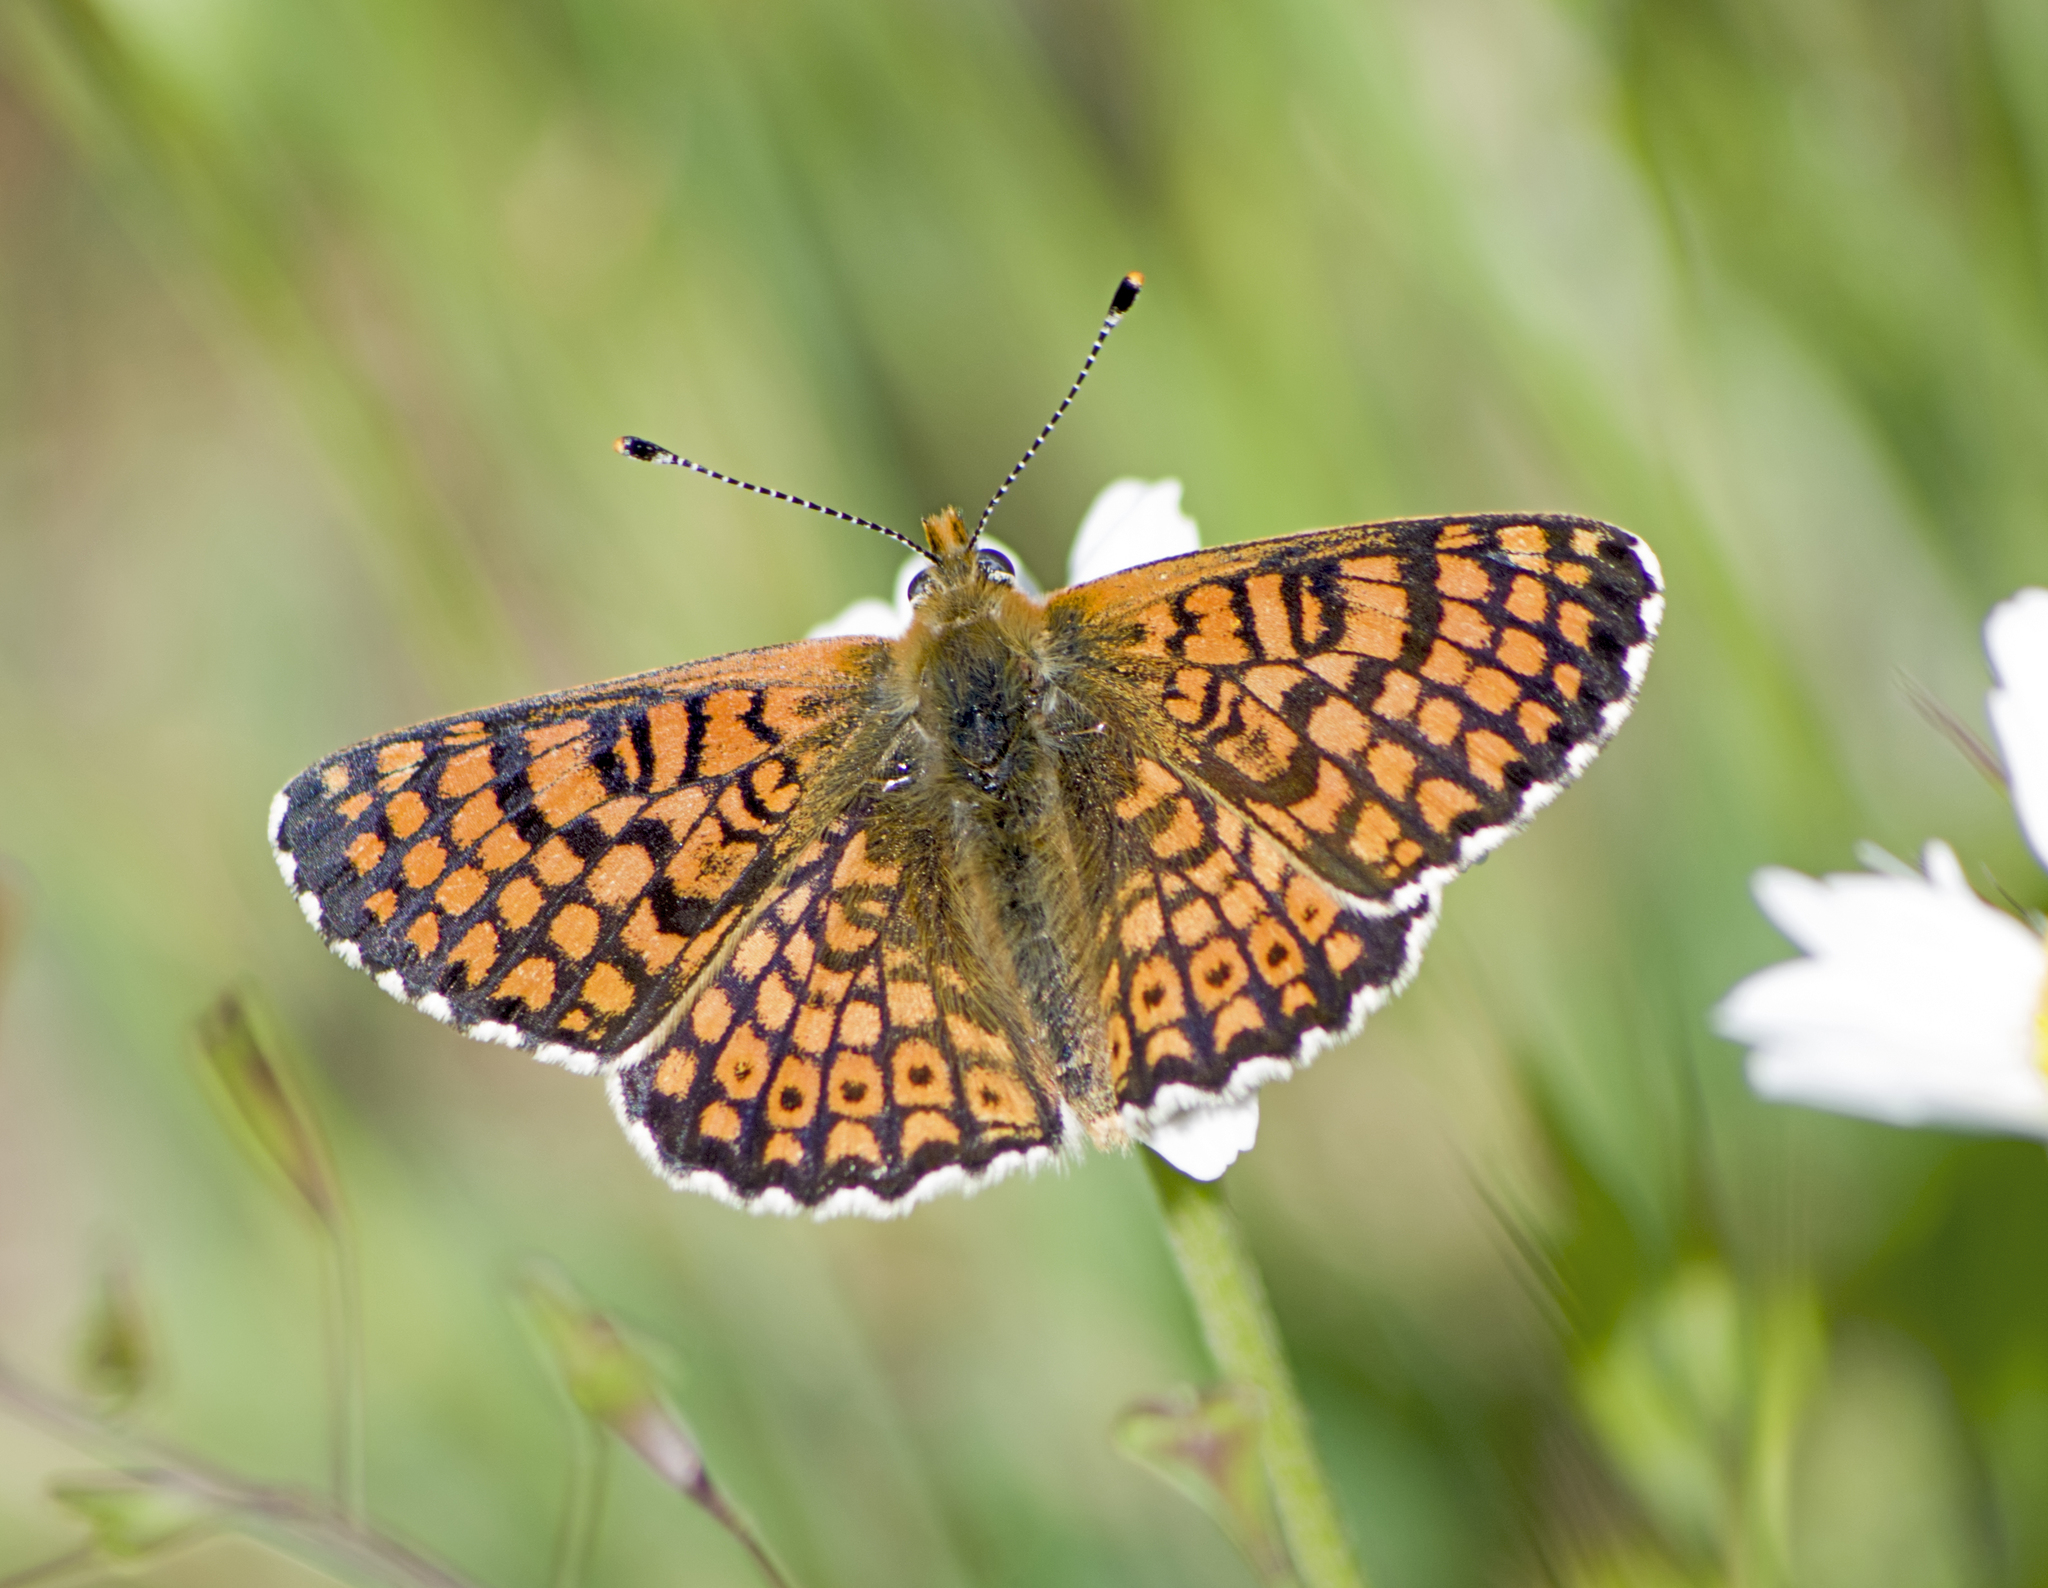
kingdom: Animalia
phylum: Arthropoda
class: Insecta
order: Lepidoptera
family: Nymphalidae
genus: Melitaea
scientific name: Melitaea cinxia
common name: Glanville fritillary
